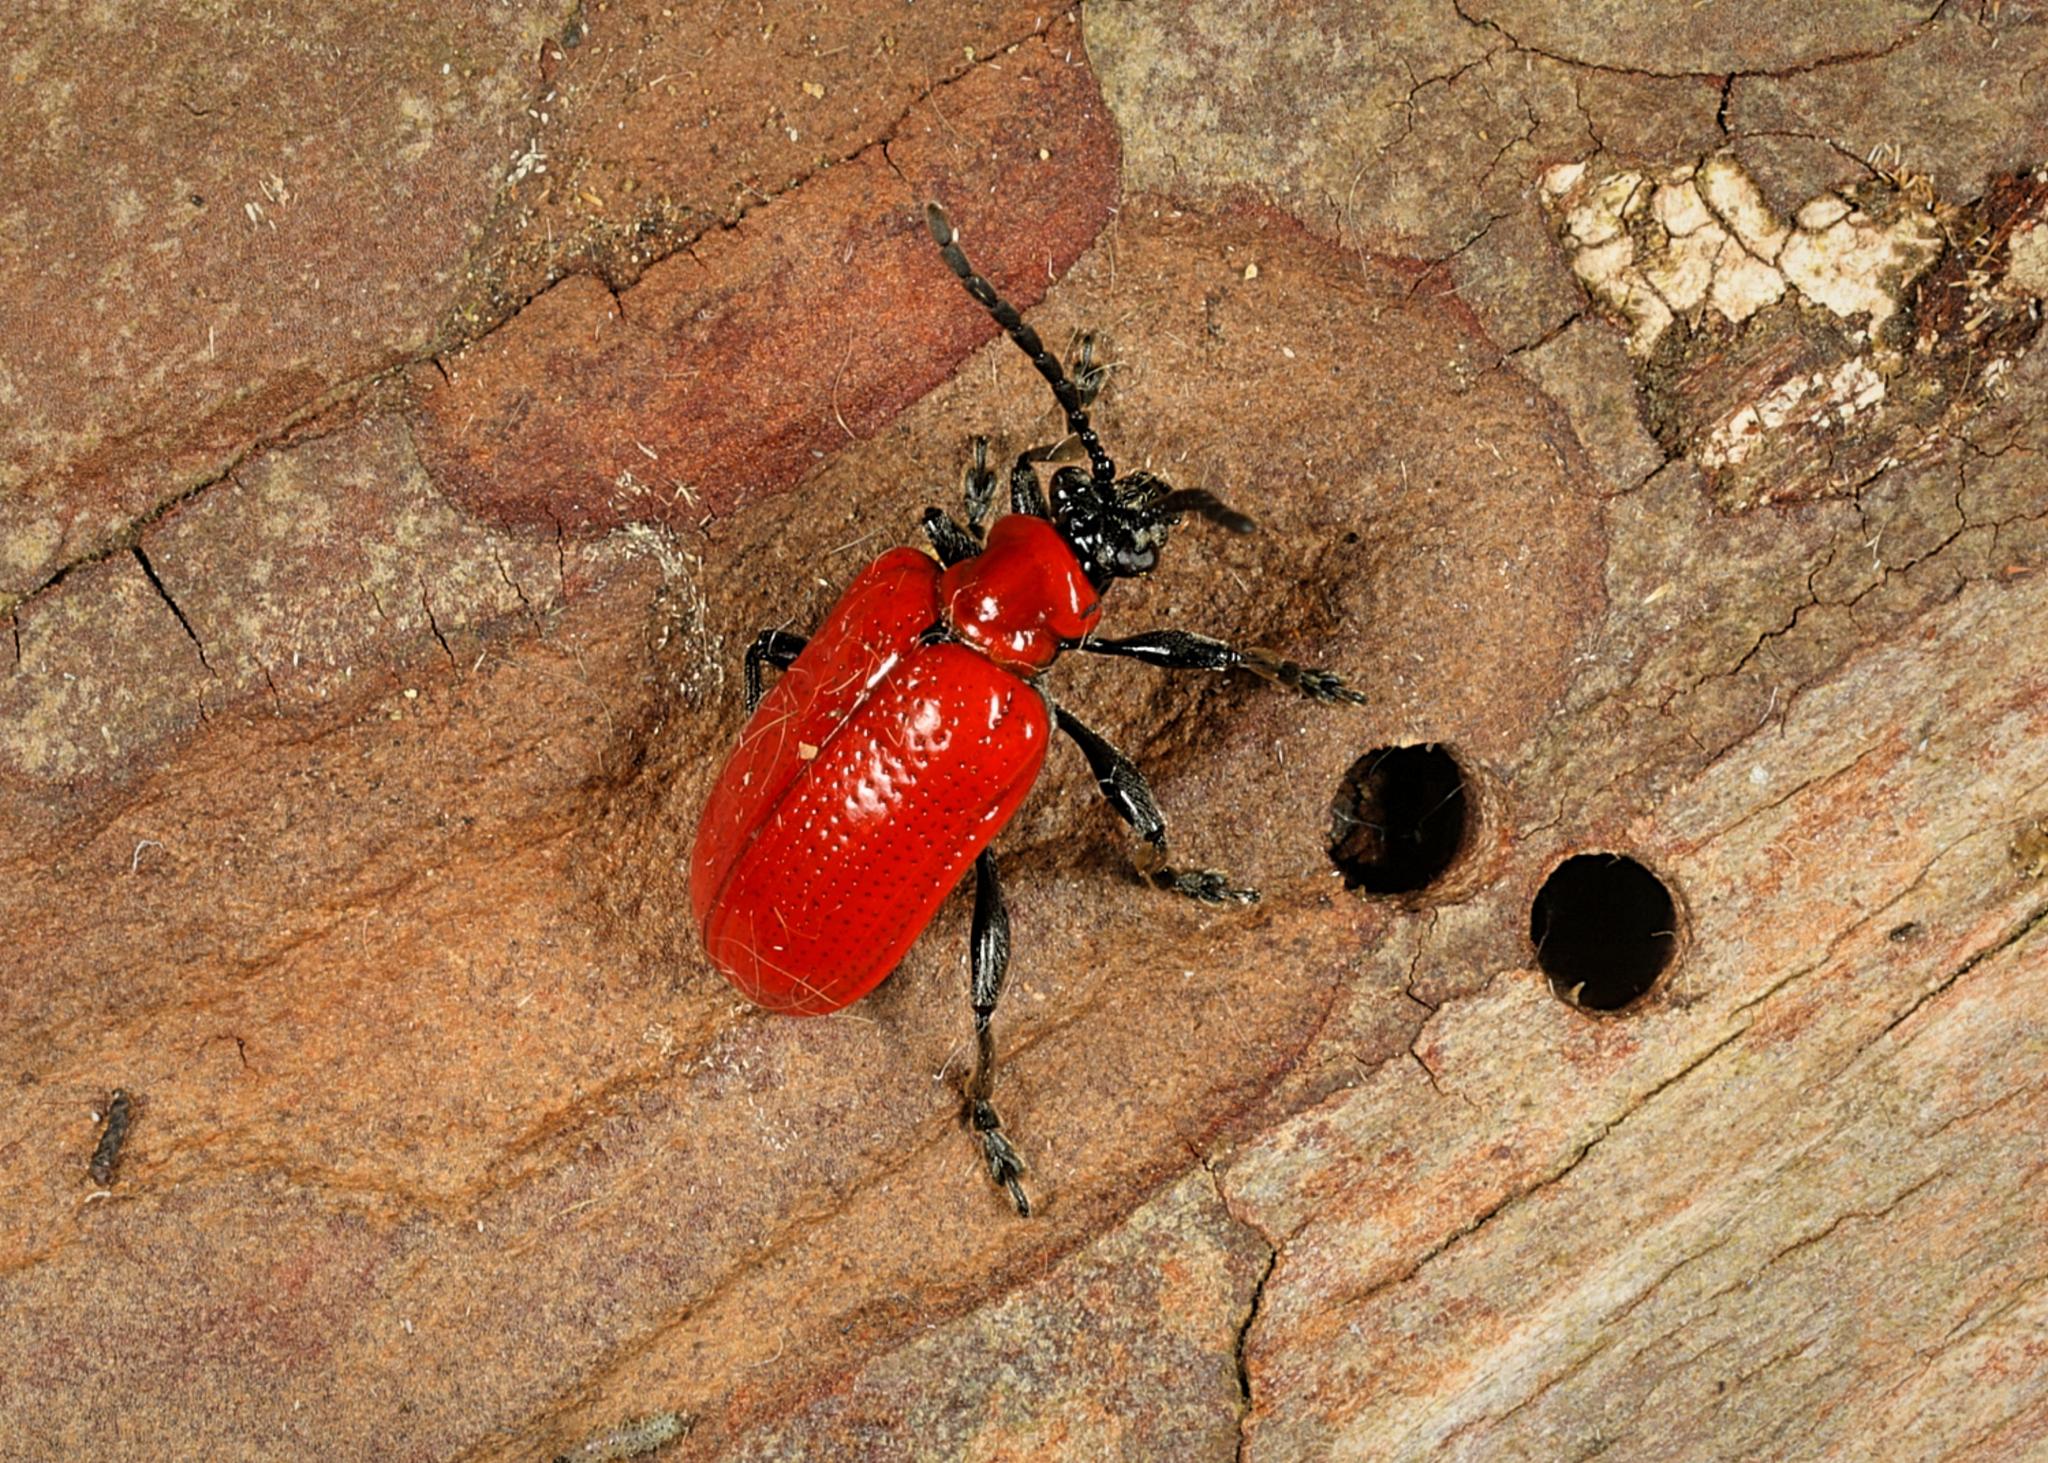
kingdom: Animalia
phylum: Arthropoda
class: Insecta
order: Coleoptera
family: Chrysomelidae
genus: Lilioceris
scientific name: Lilioceris lilii
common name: Lily beetle
